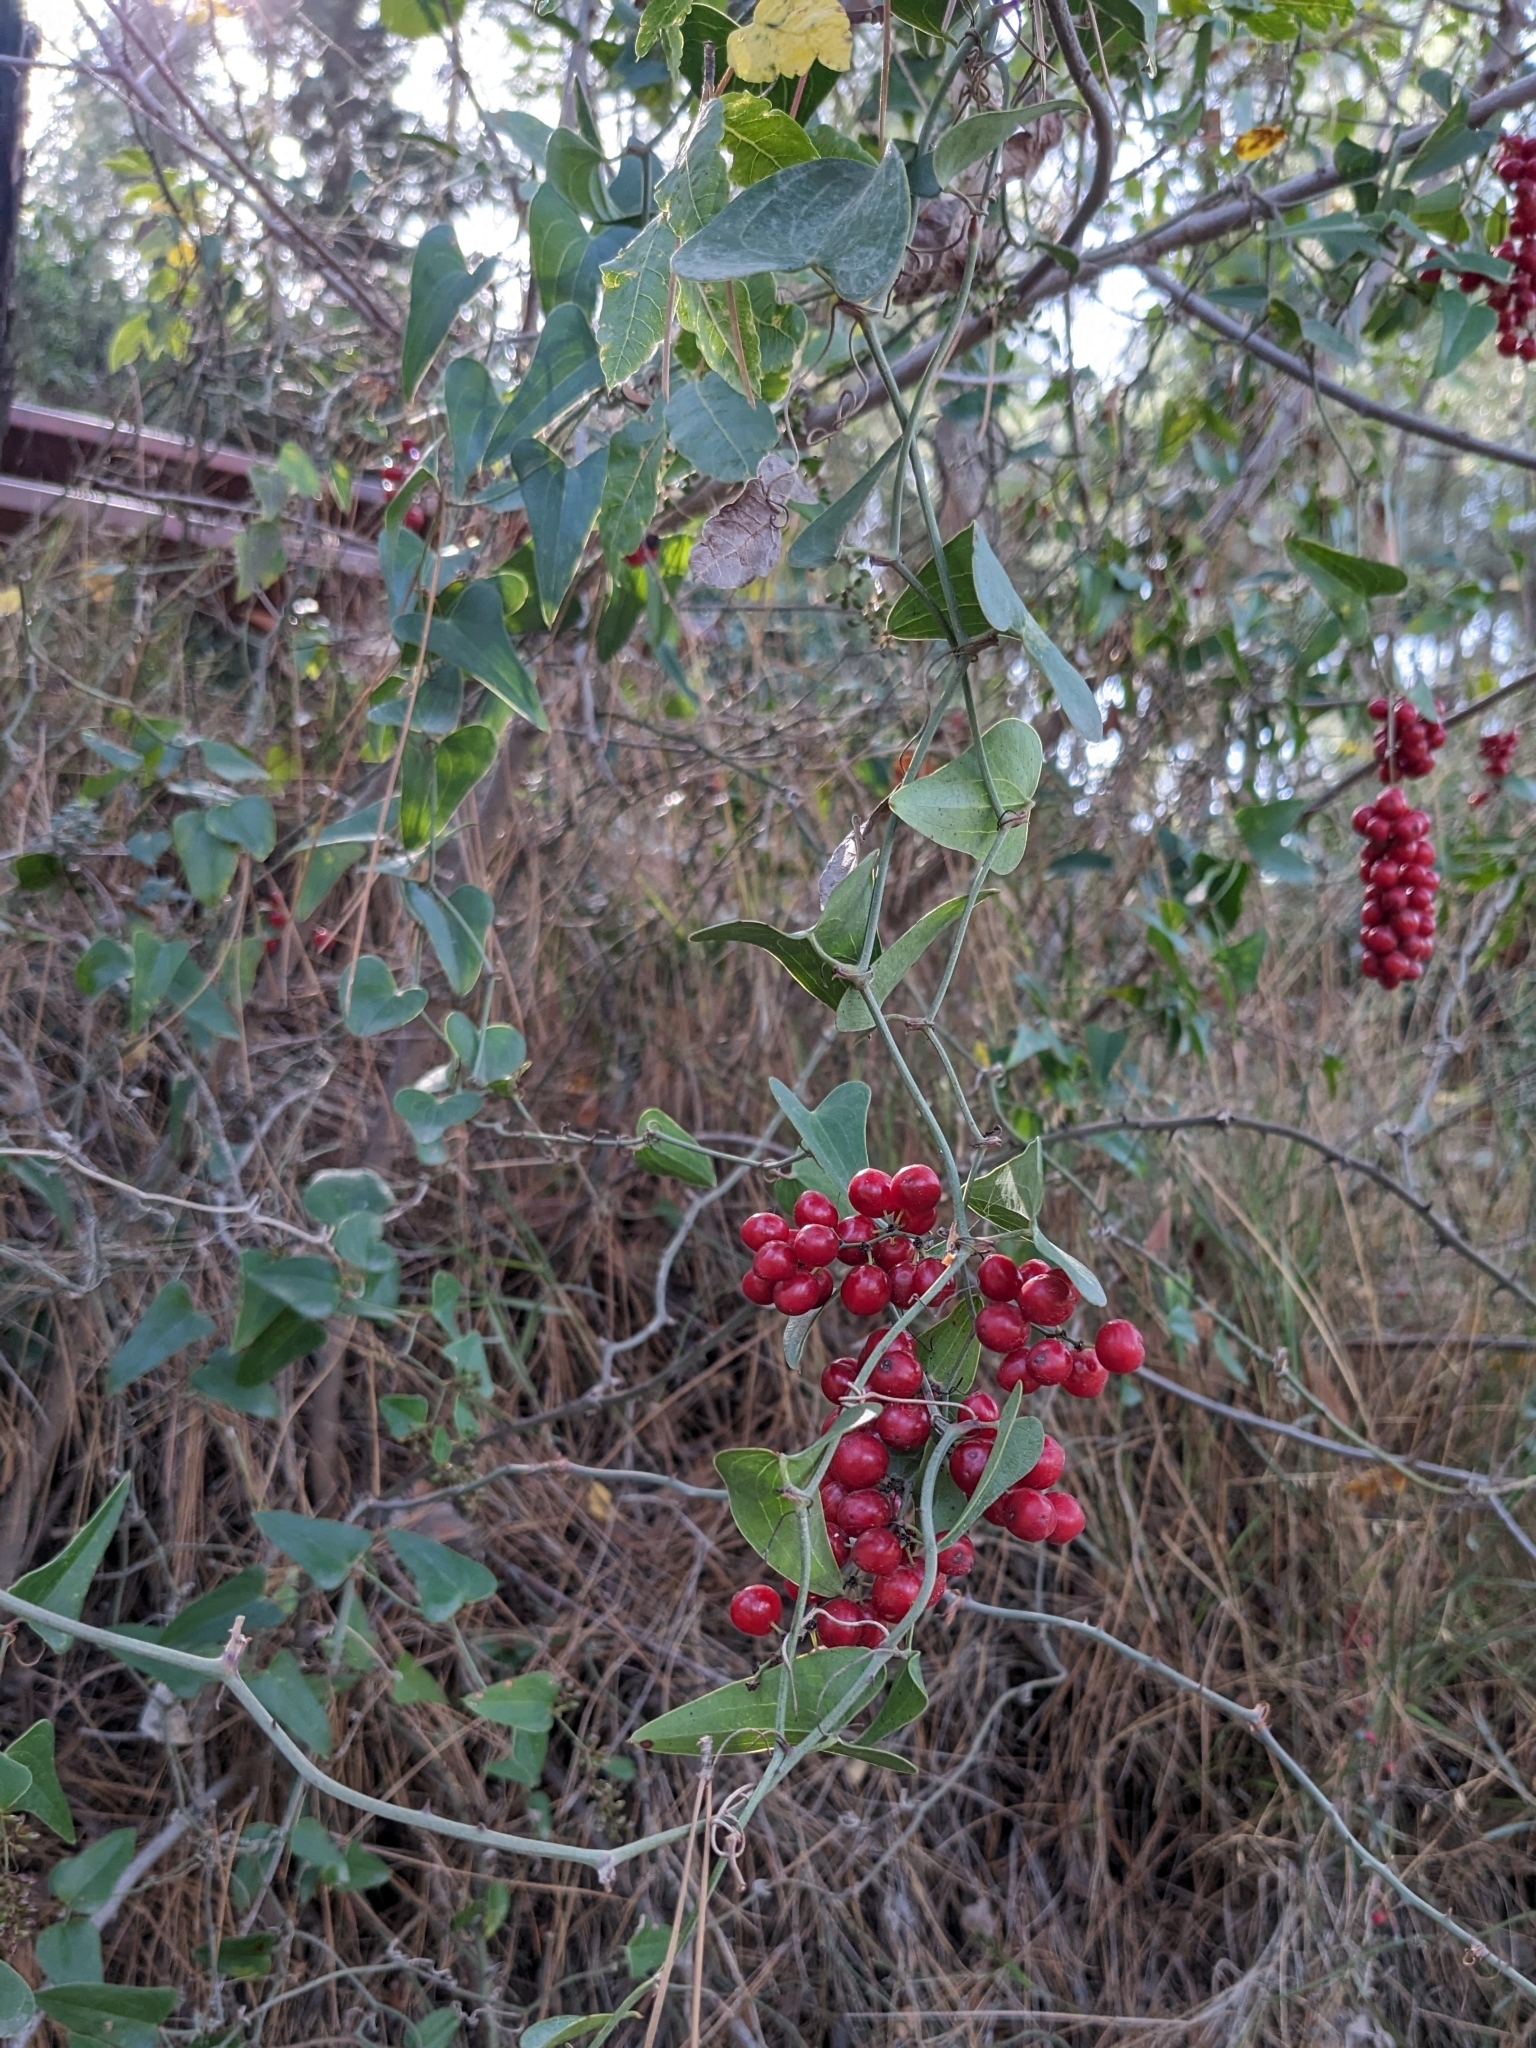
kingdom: Plantae
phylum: Tracheophyta
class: Liliopsida
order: Liliales
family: Smilacaceae
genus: Smilax
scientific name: Smilax aspera
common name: Common smilax
